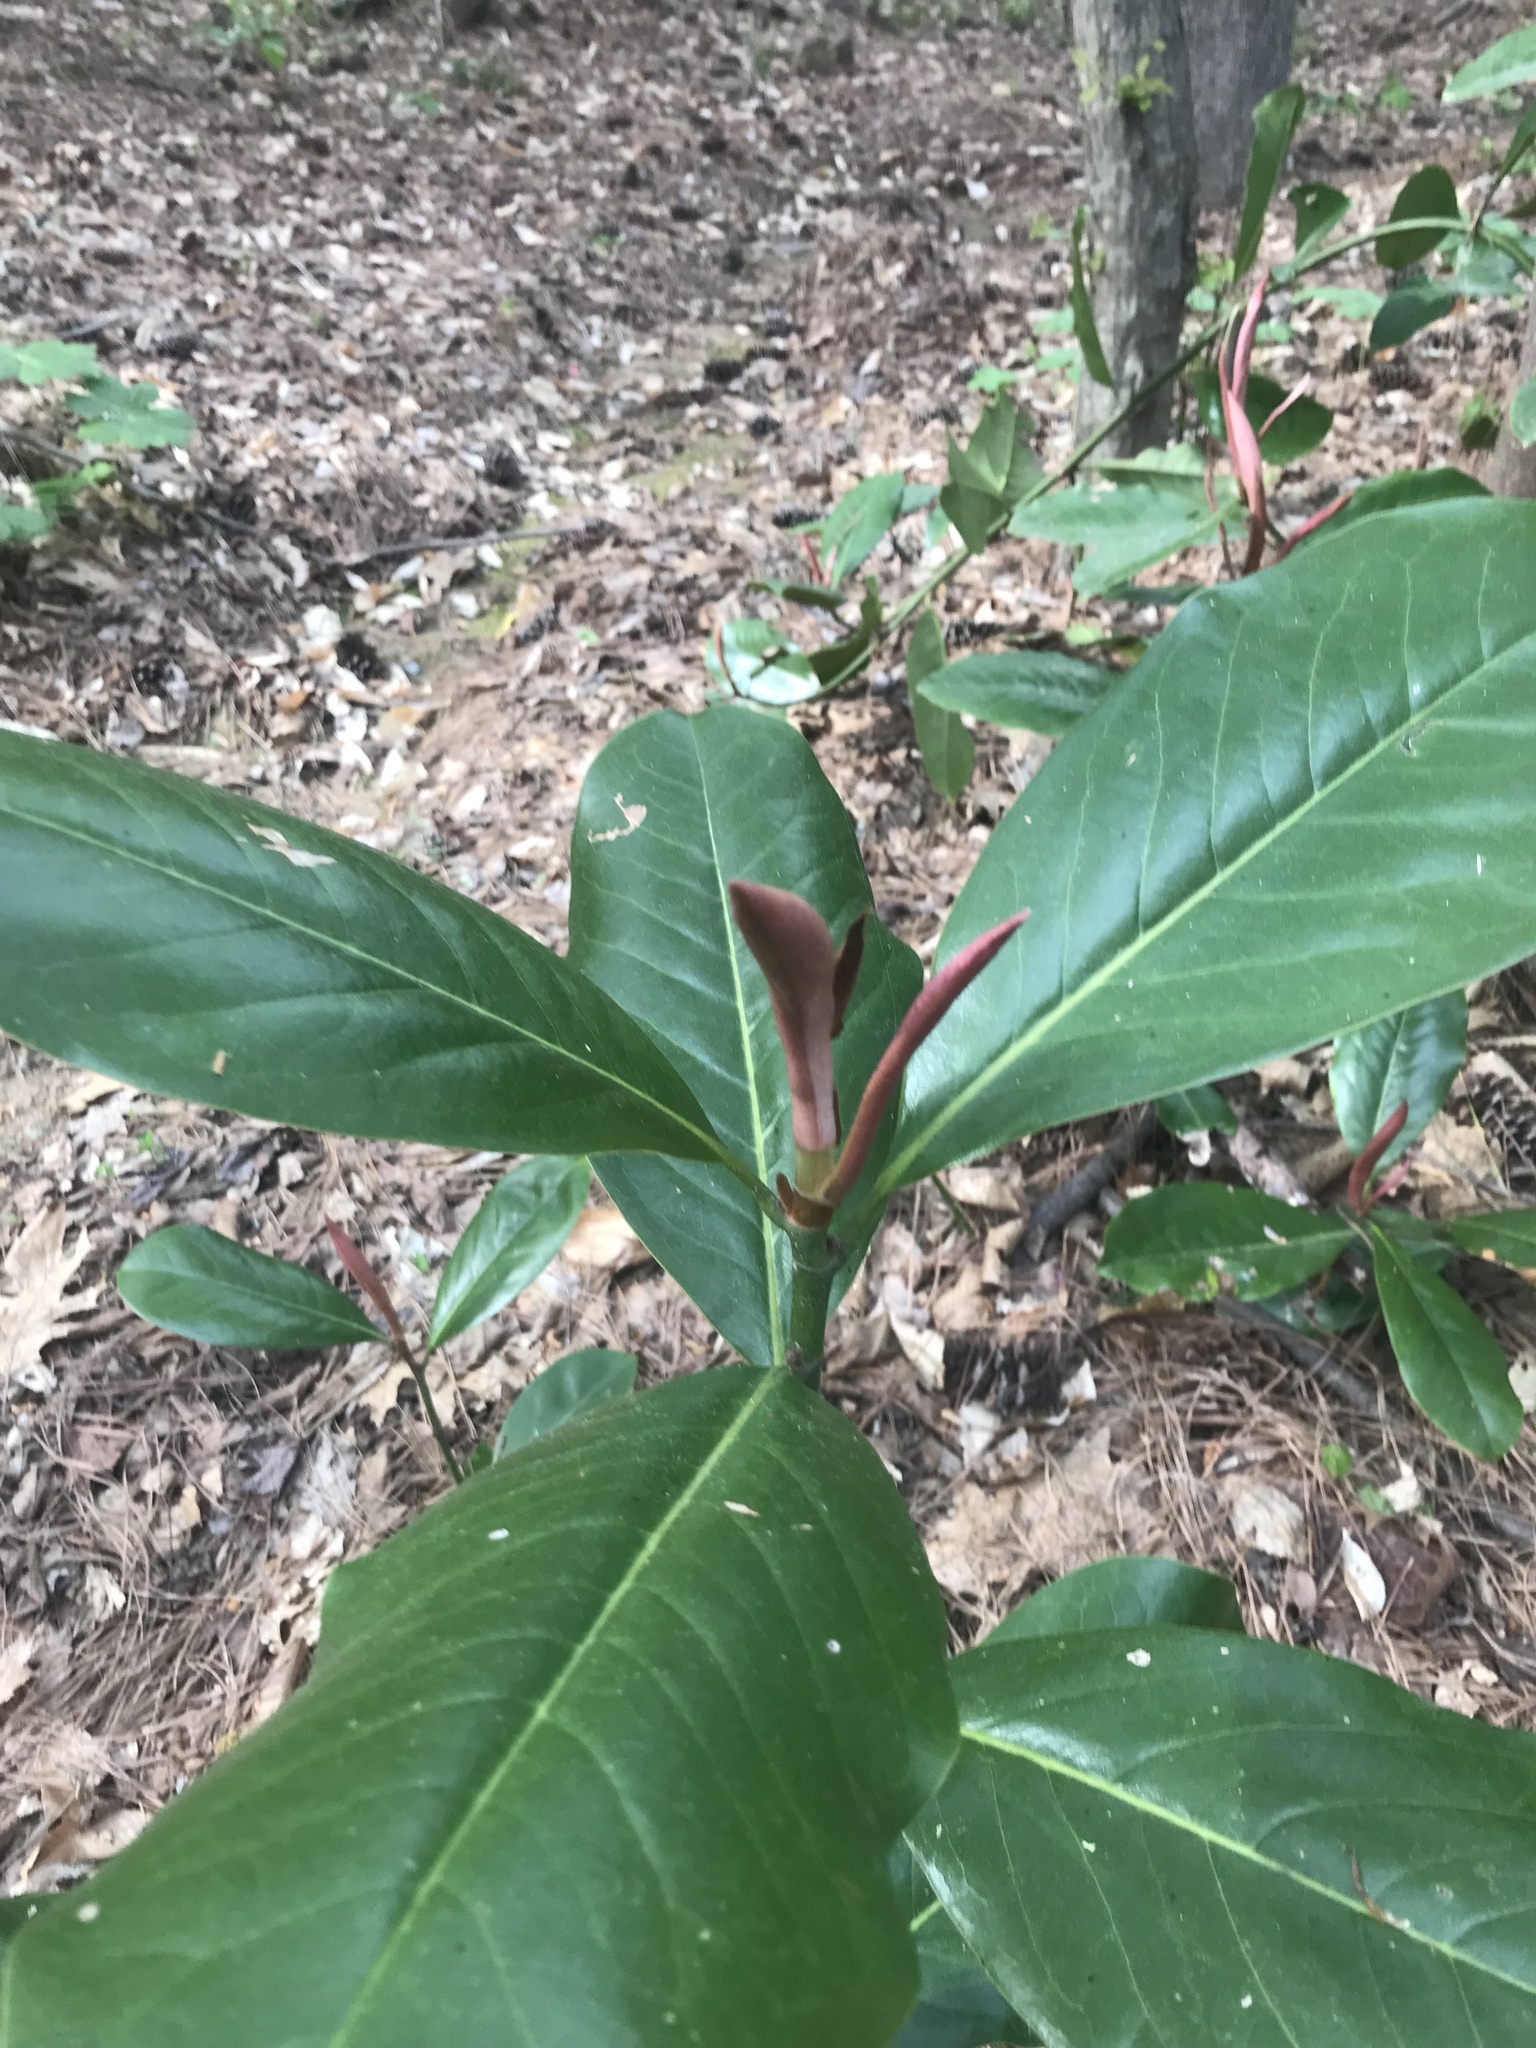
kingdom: Plantae
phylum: Tracheophyta
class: Magnoliopsida
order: Magnoliales
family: Magnoliaceae
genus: Magnolia
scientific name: Magnolia grandiflora
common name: Southern magnolia
